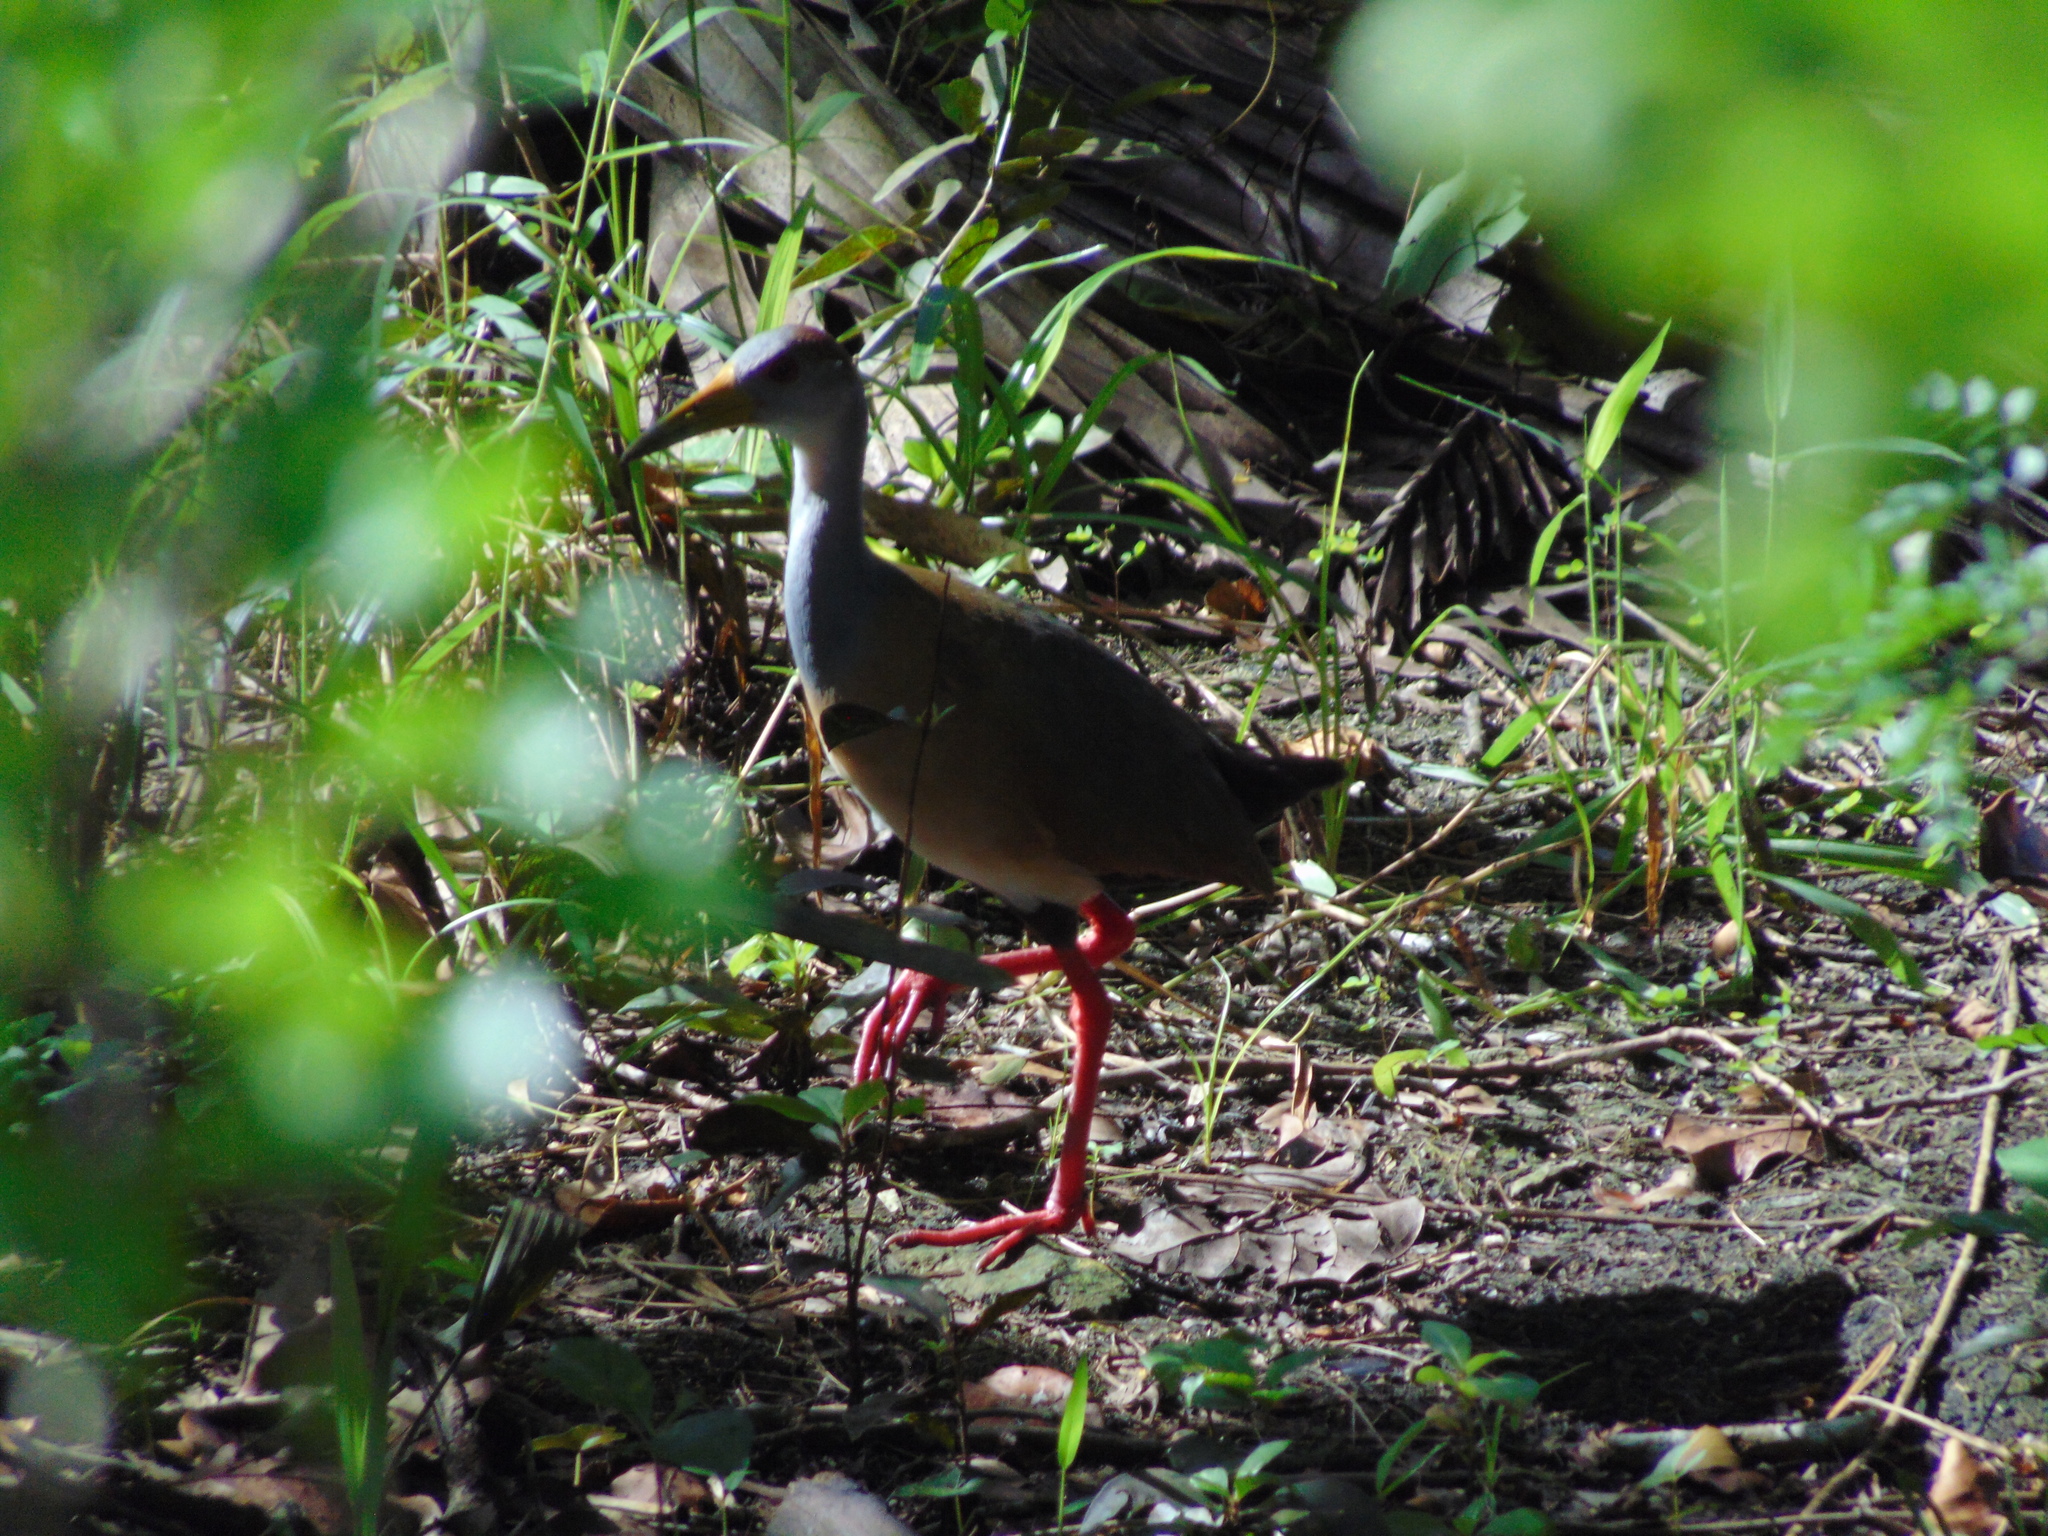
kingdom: Animalia
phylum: Chordata
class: Aves
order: Gruiformes
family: Rallidae
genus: Aramides
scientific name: Aramides albiventris
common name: Russet-naped wood-rail
